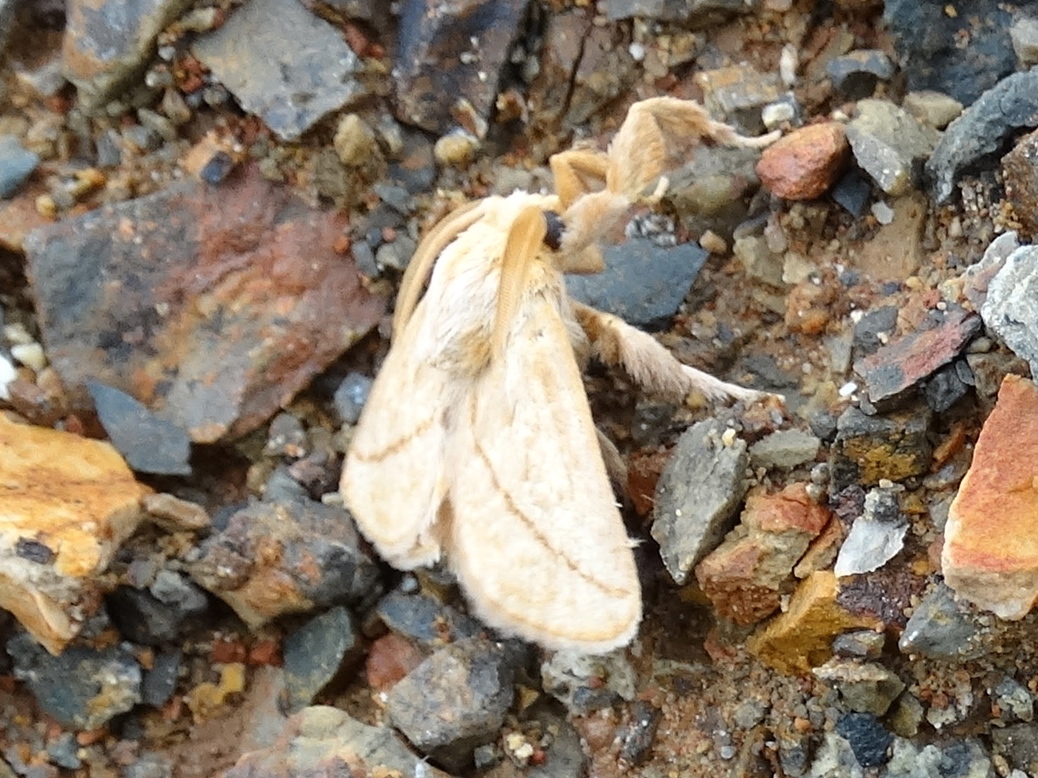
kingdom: Animalia
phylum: Arthropoda
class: Insecta
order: Lepidoptera
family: Limacodidae
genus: Perola
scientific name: Perola
